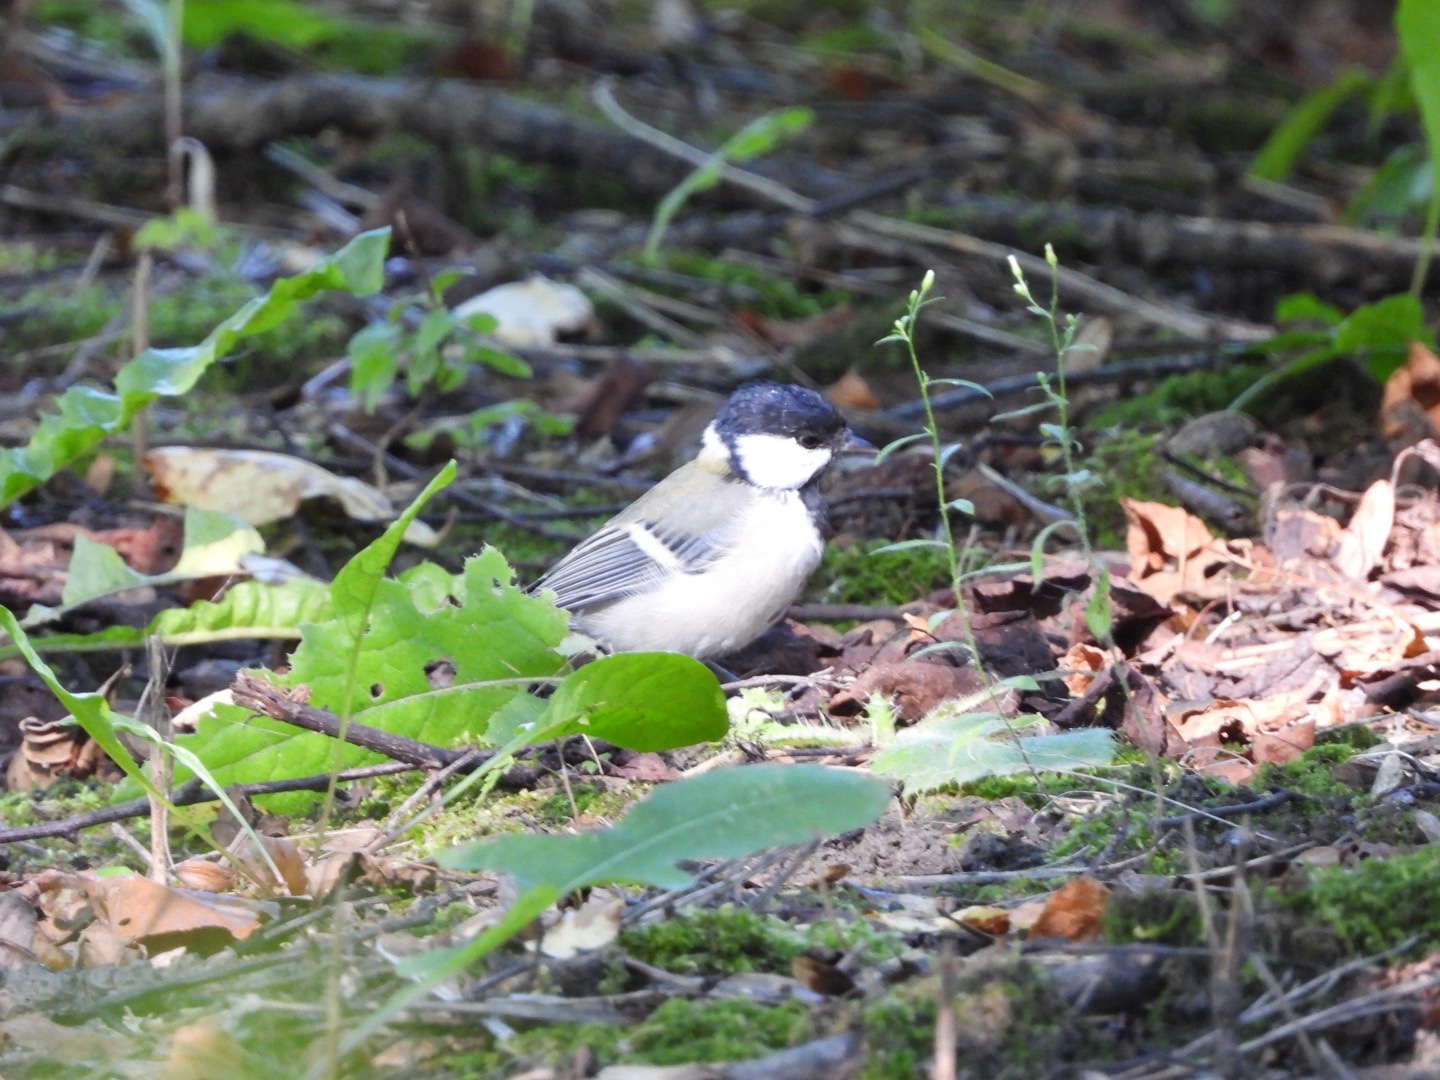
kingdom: Animalia
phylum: Chordata
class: Aves
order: Passeriformes
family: Paridae
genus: Parus
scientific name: Parus minor
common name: Japanese tit
